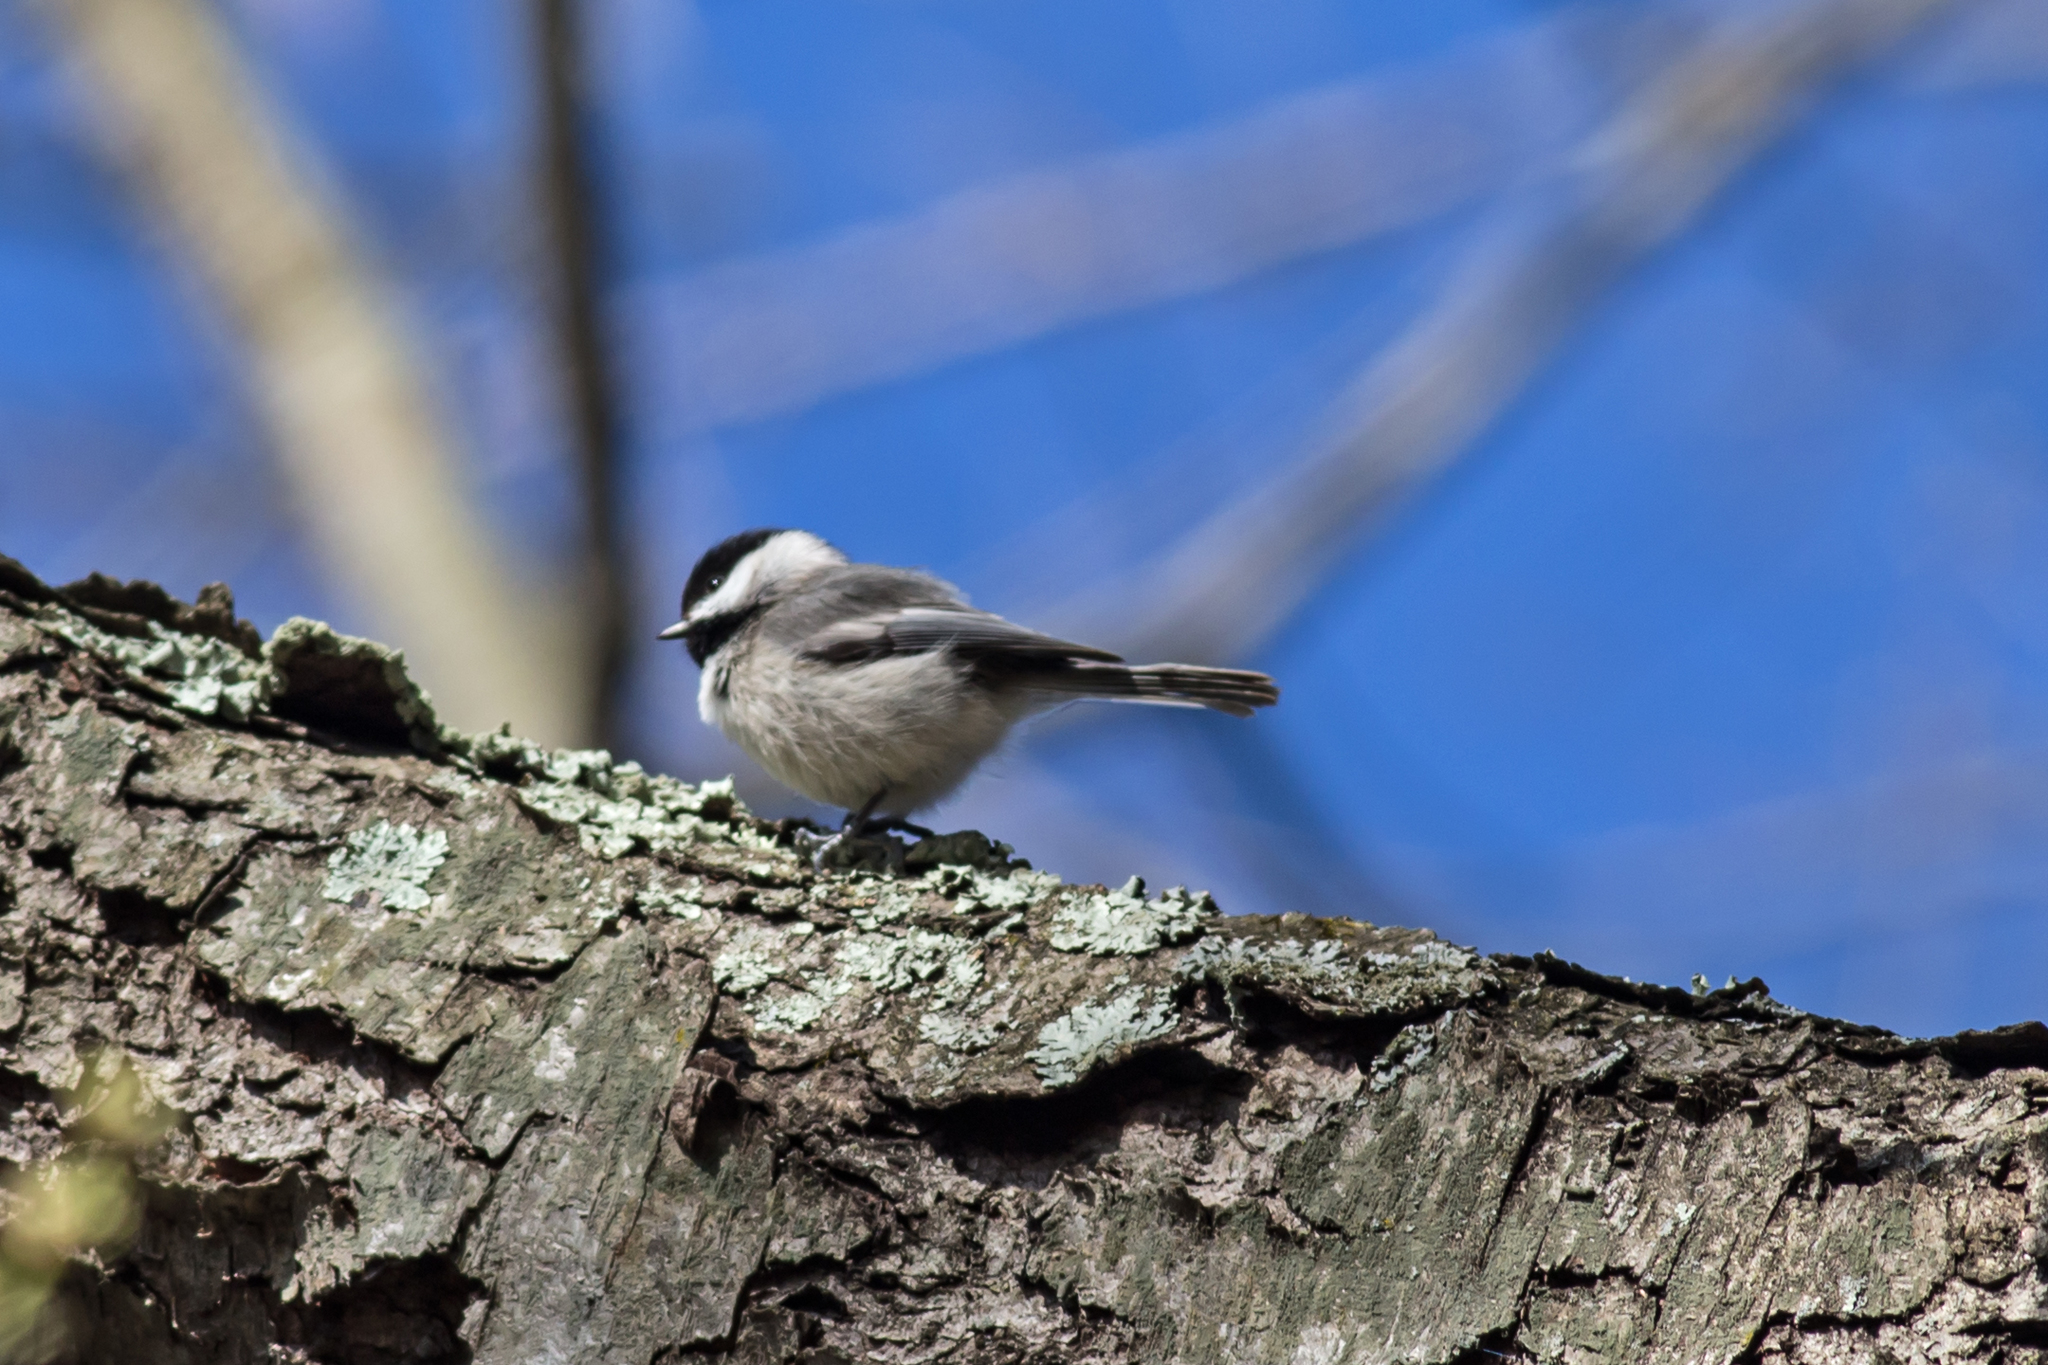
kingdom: Animalia
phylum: Chordata
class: Aves
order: Passeriformes
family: Paridae
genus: Poecile
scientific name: Poecile carolinensis
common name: Carolina chickadee
